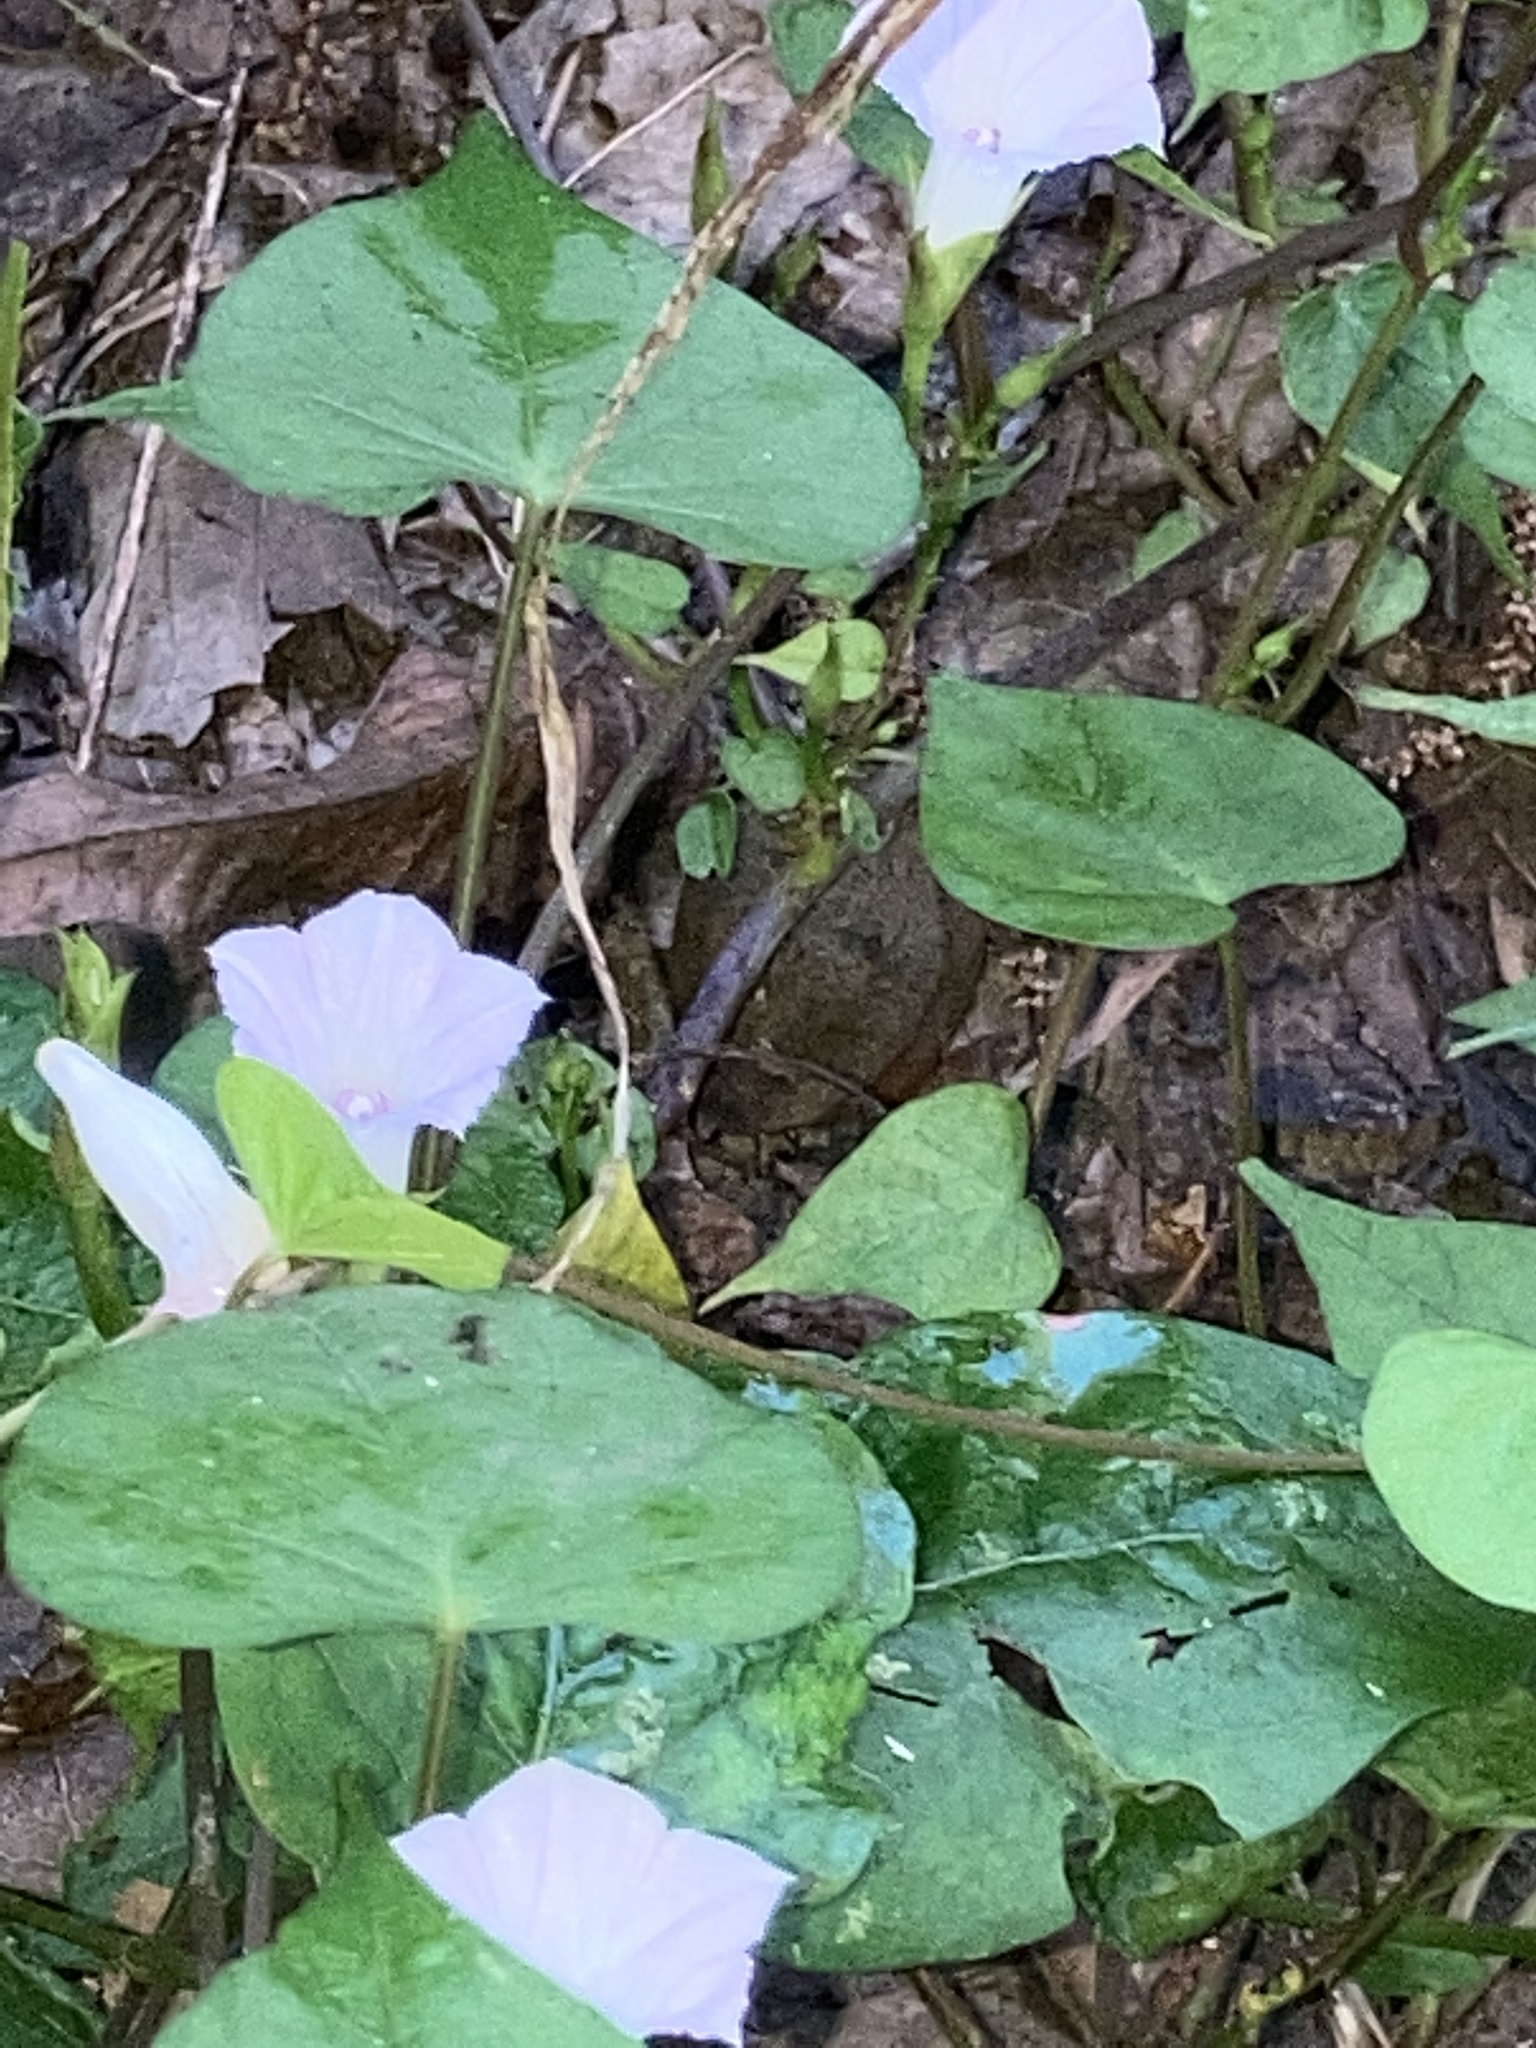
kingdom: Plantae
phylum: Tracheophyta
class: Magnoliopsida
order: Solanales
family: Convolvulaceae
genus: Ipomoea
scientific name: Ipomoea lacunosa
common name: White morning-glory
